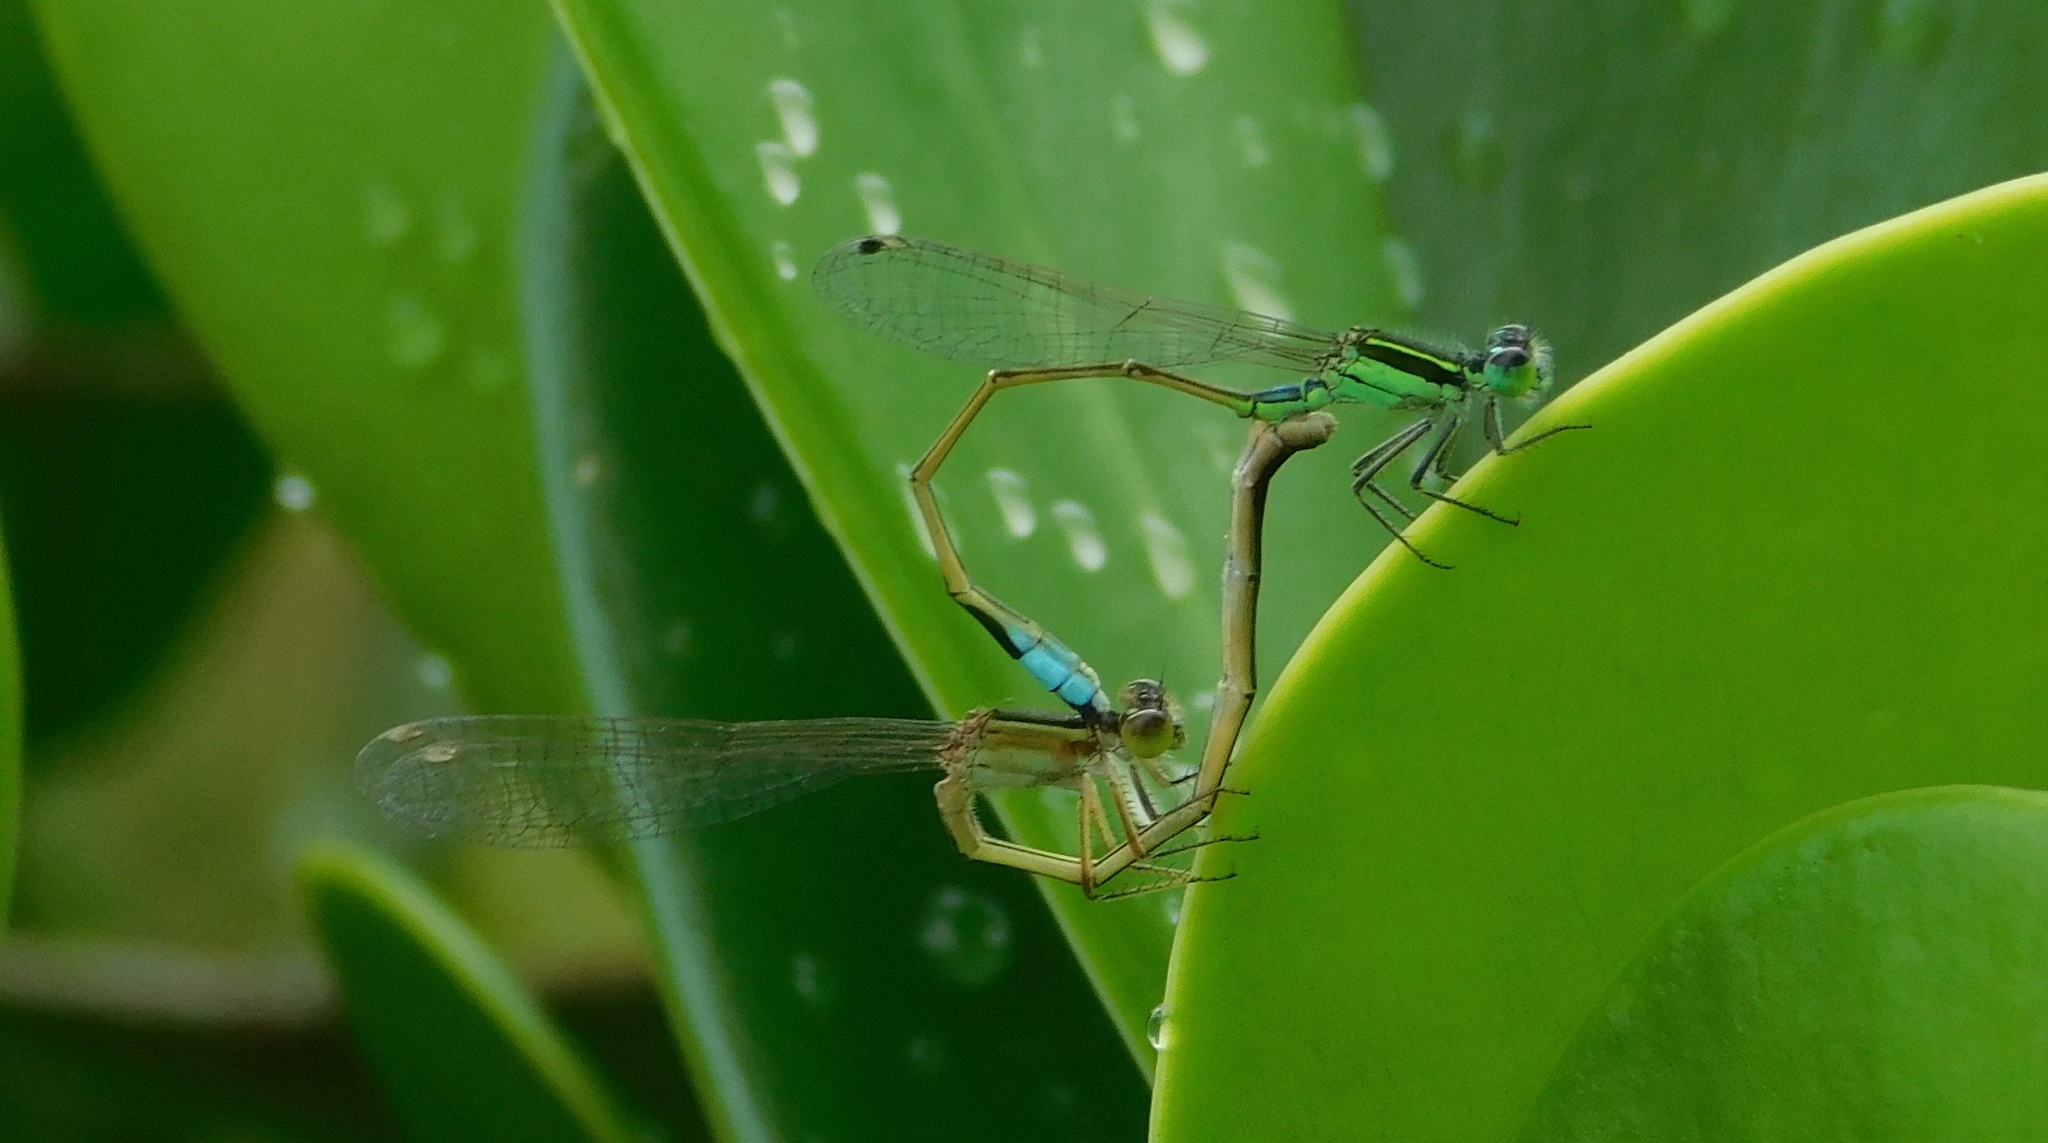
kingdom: Animalia
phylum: Arthropoda
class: Insecta
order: Odonata
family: Coenagrionidae
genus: Ischnura
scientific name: Ischnura ramburii
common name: Rambur's forktail
